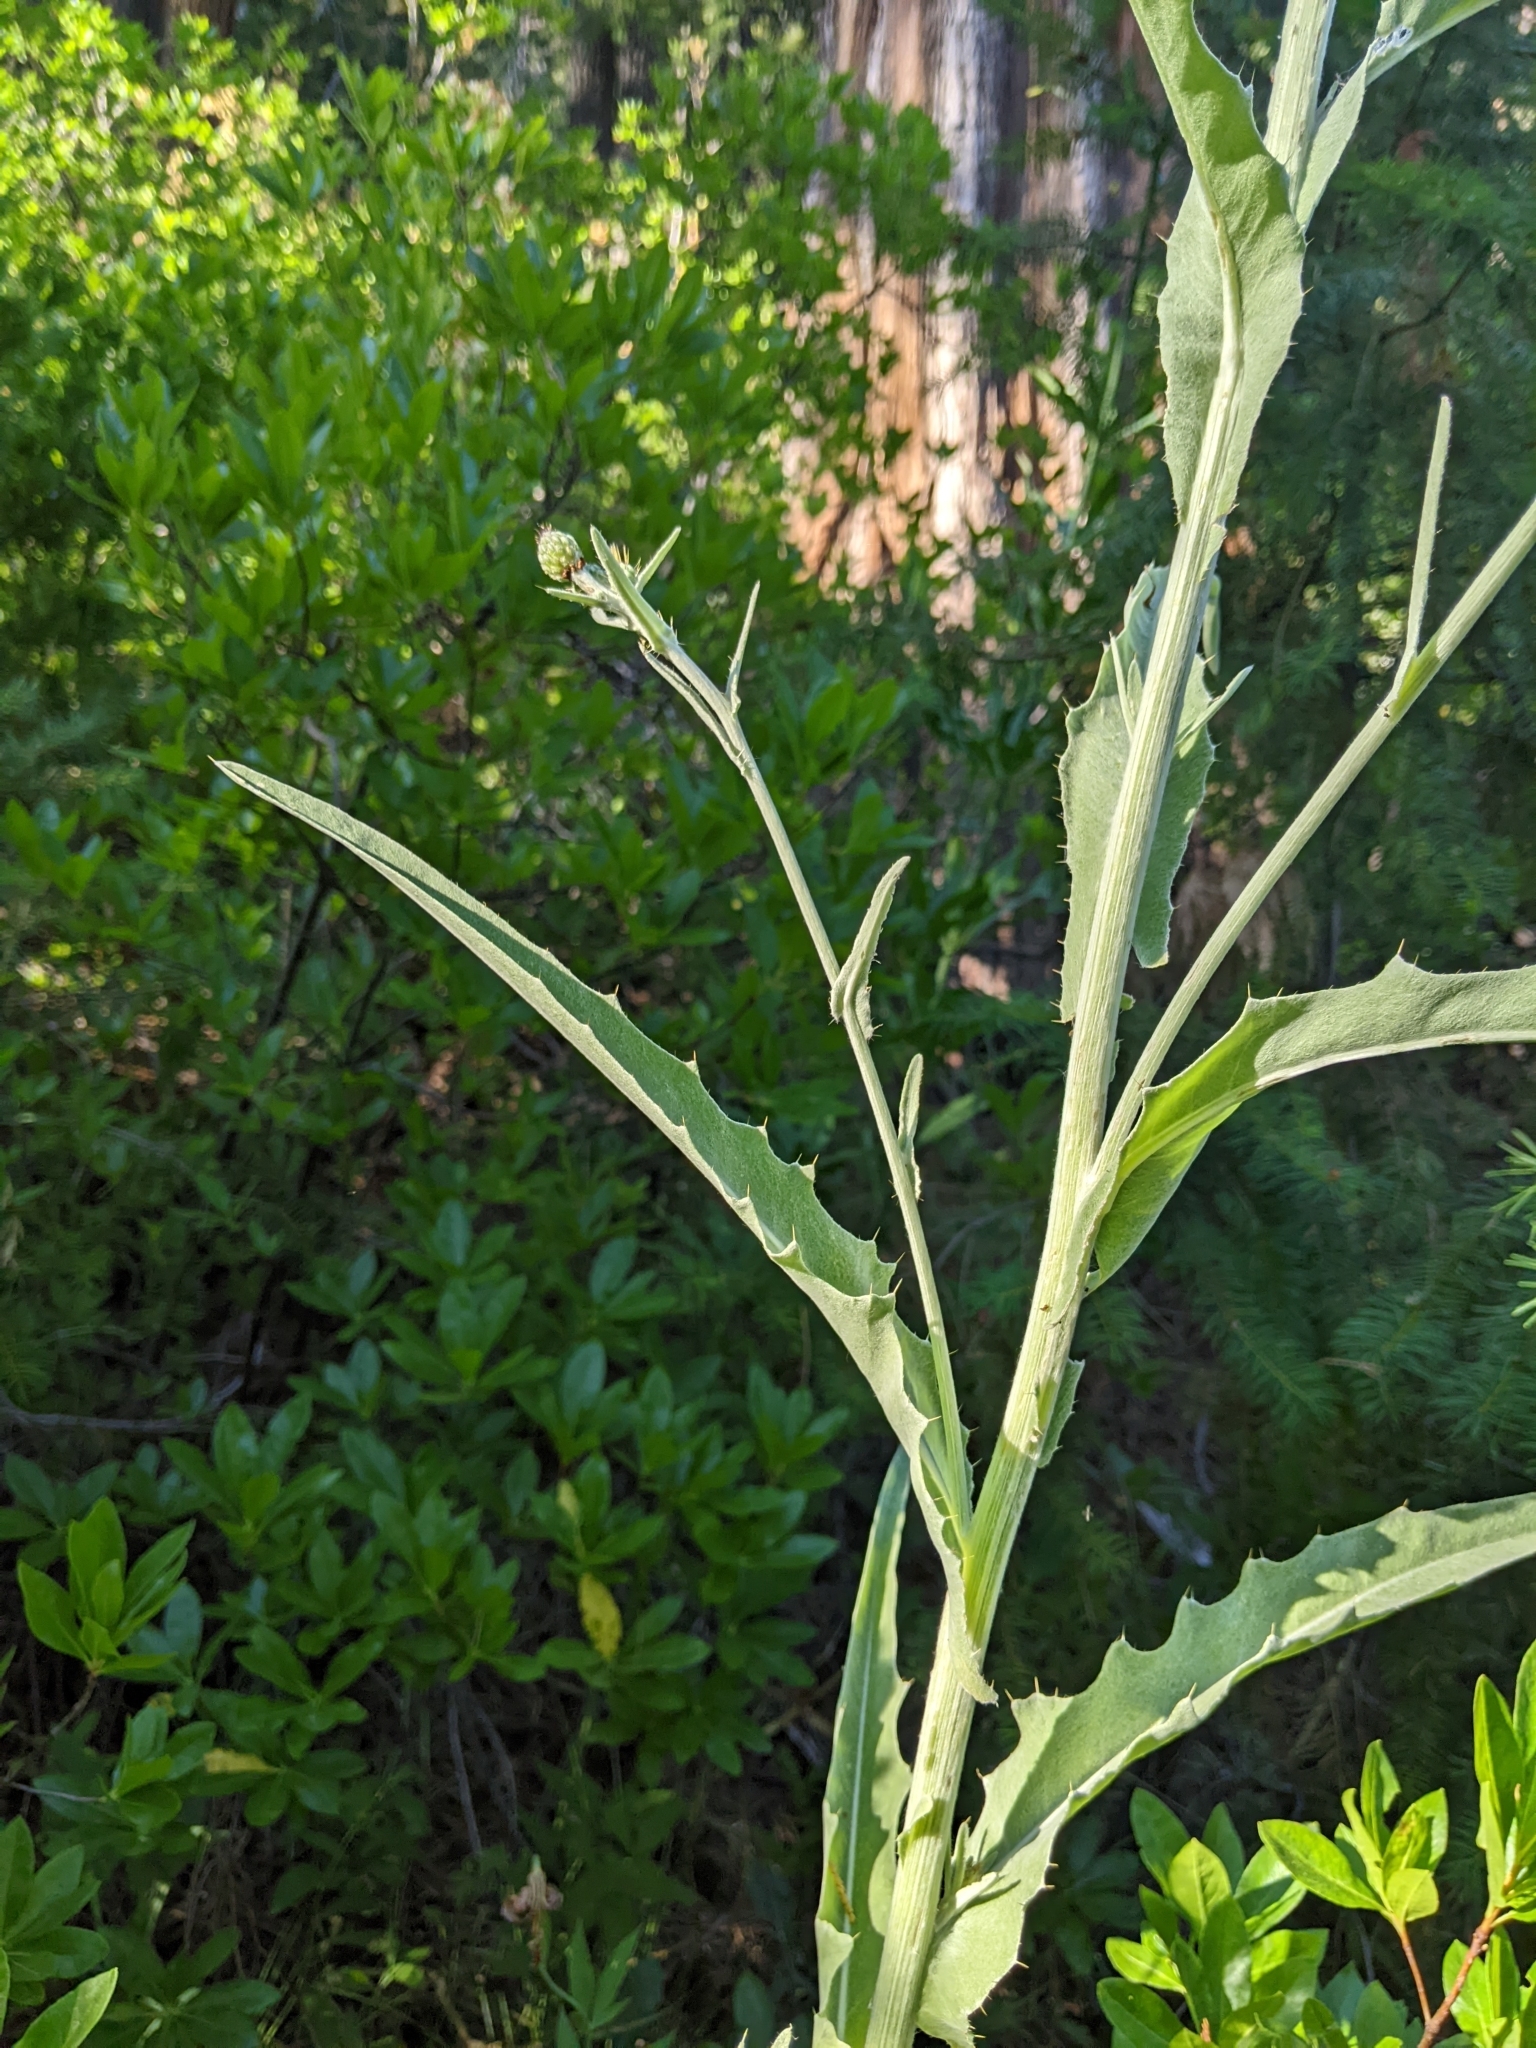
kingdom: Plantae
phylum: Tracheophyta
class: Magnoliopsida
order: Asterales
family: Asteraceae
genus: Cirsium
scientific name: Cirsium douglasii
